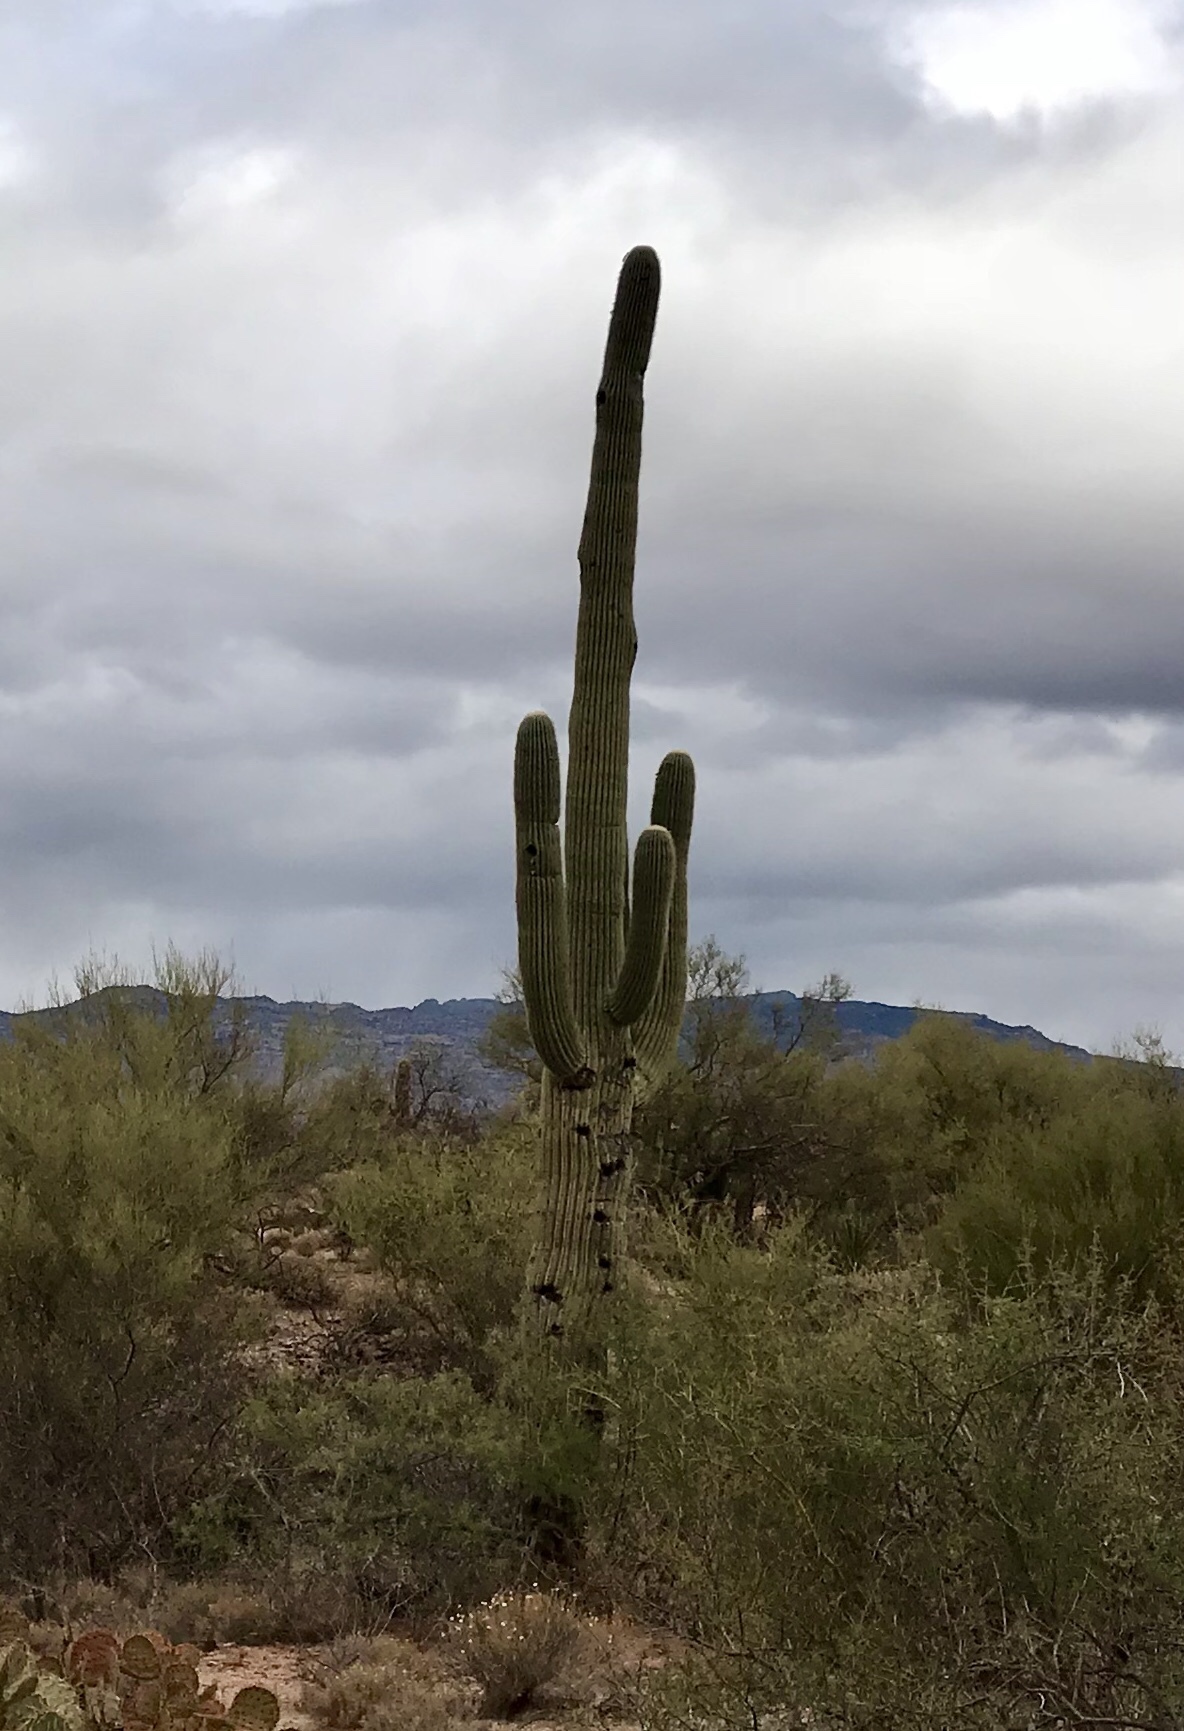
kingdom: Plantae
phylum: Tracheophyta
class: Magnoliopsida
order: Caryophyllales
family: Cactaceae
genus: Carnegiea
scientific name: Carnegiea gigantea
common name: Saguaro
